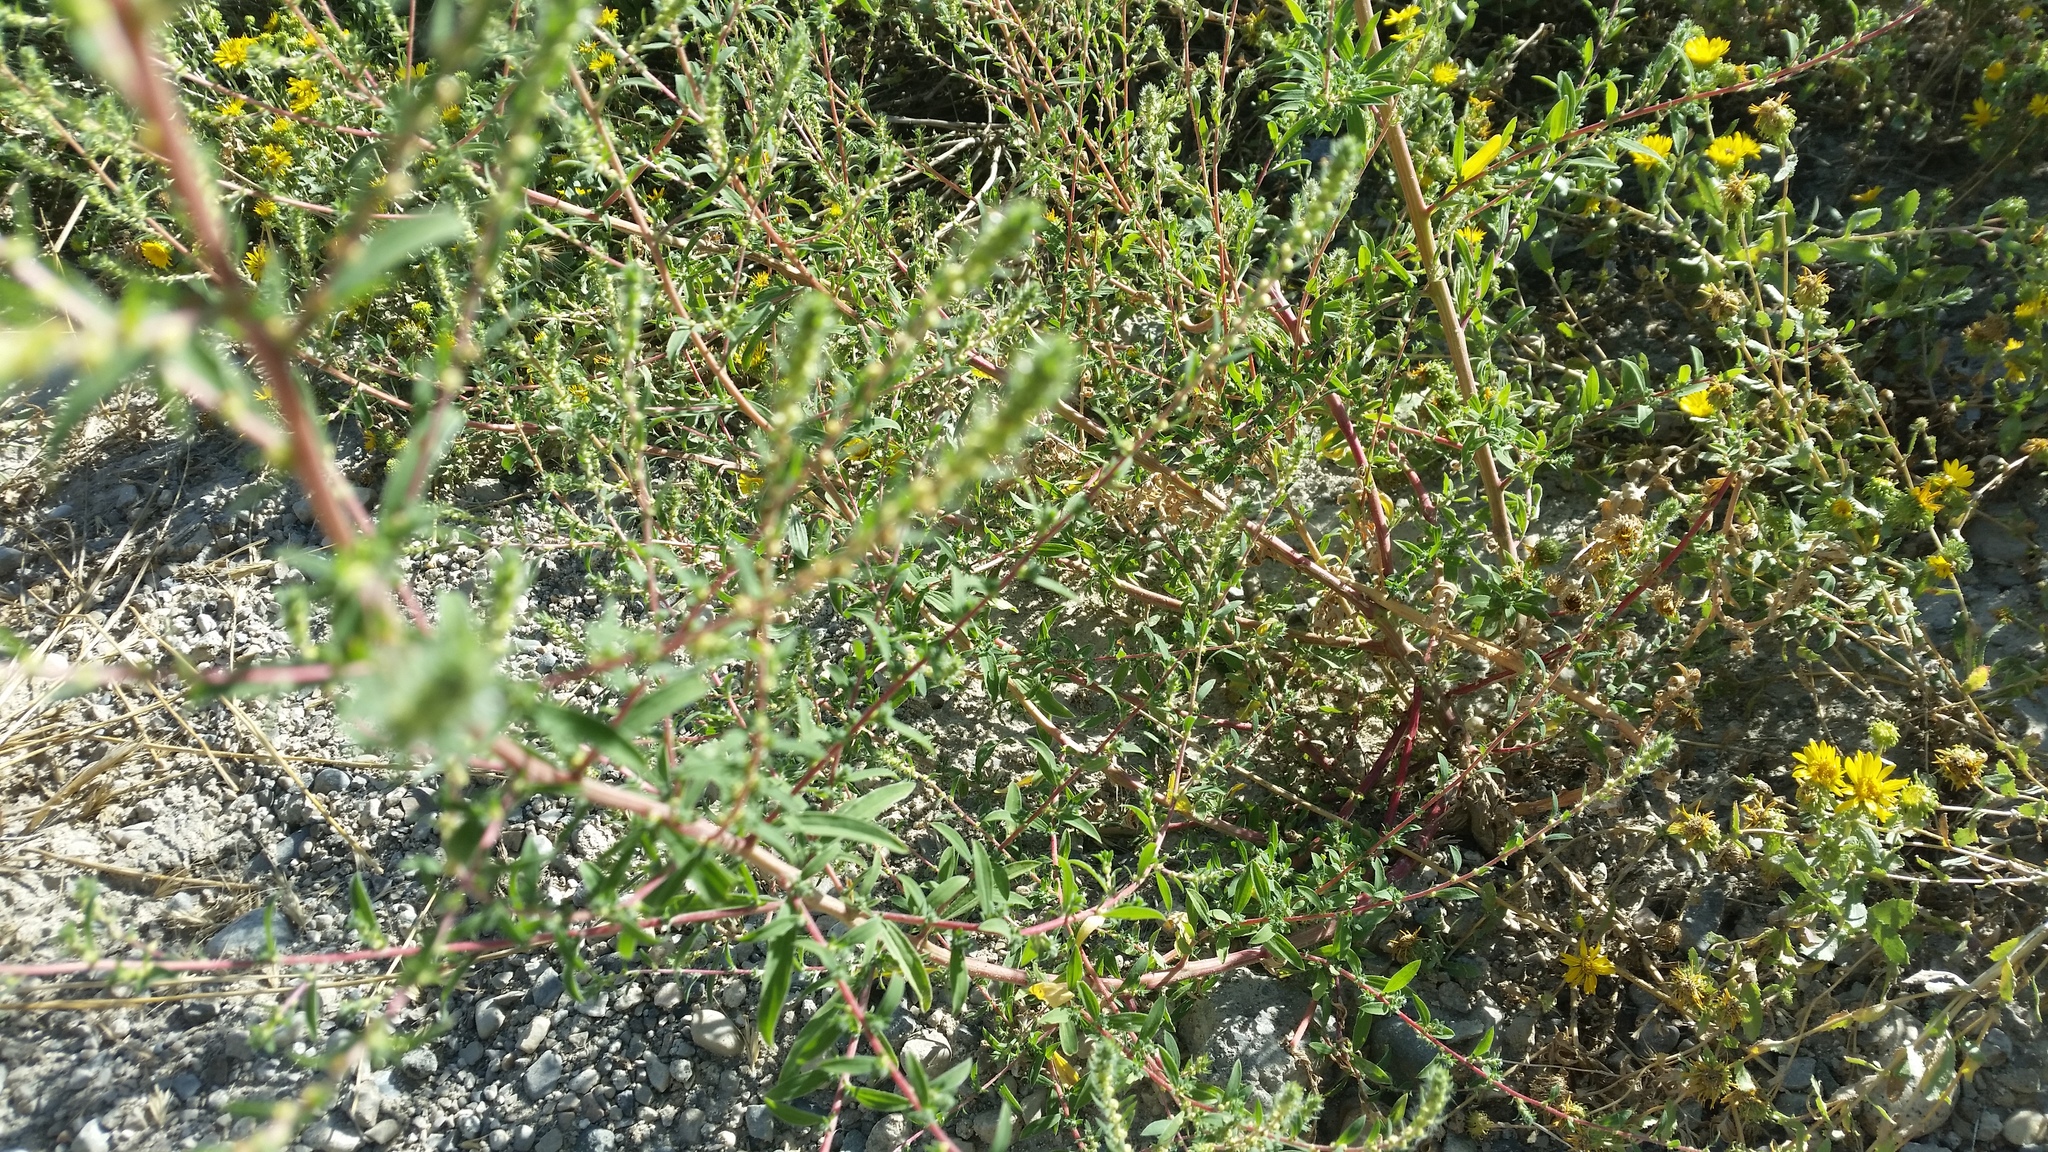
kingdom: Plantae
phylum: Tracheophyta
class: Magnoliopsida
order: Caryophyllales
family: Amaranthaceae
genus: Bassia
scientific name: Bassia scoparia
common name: Belvedere
